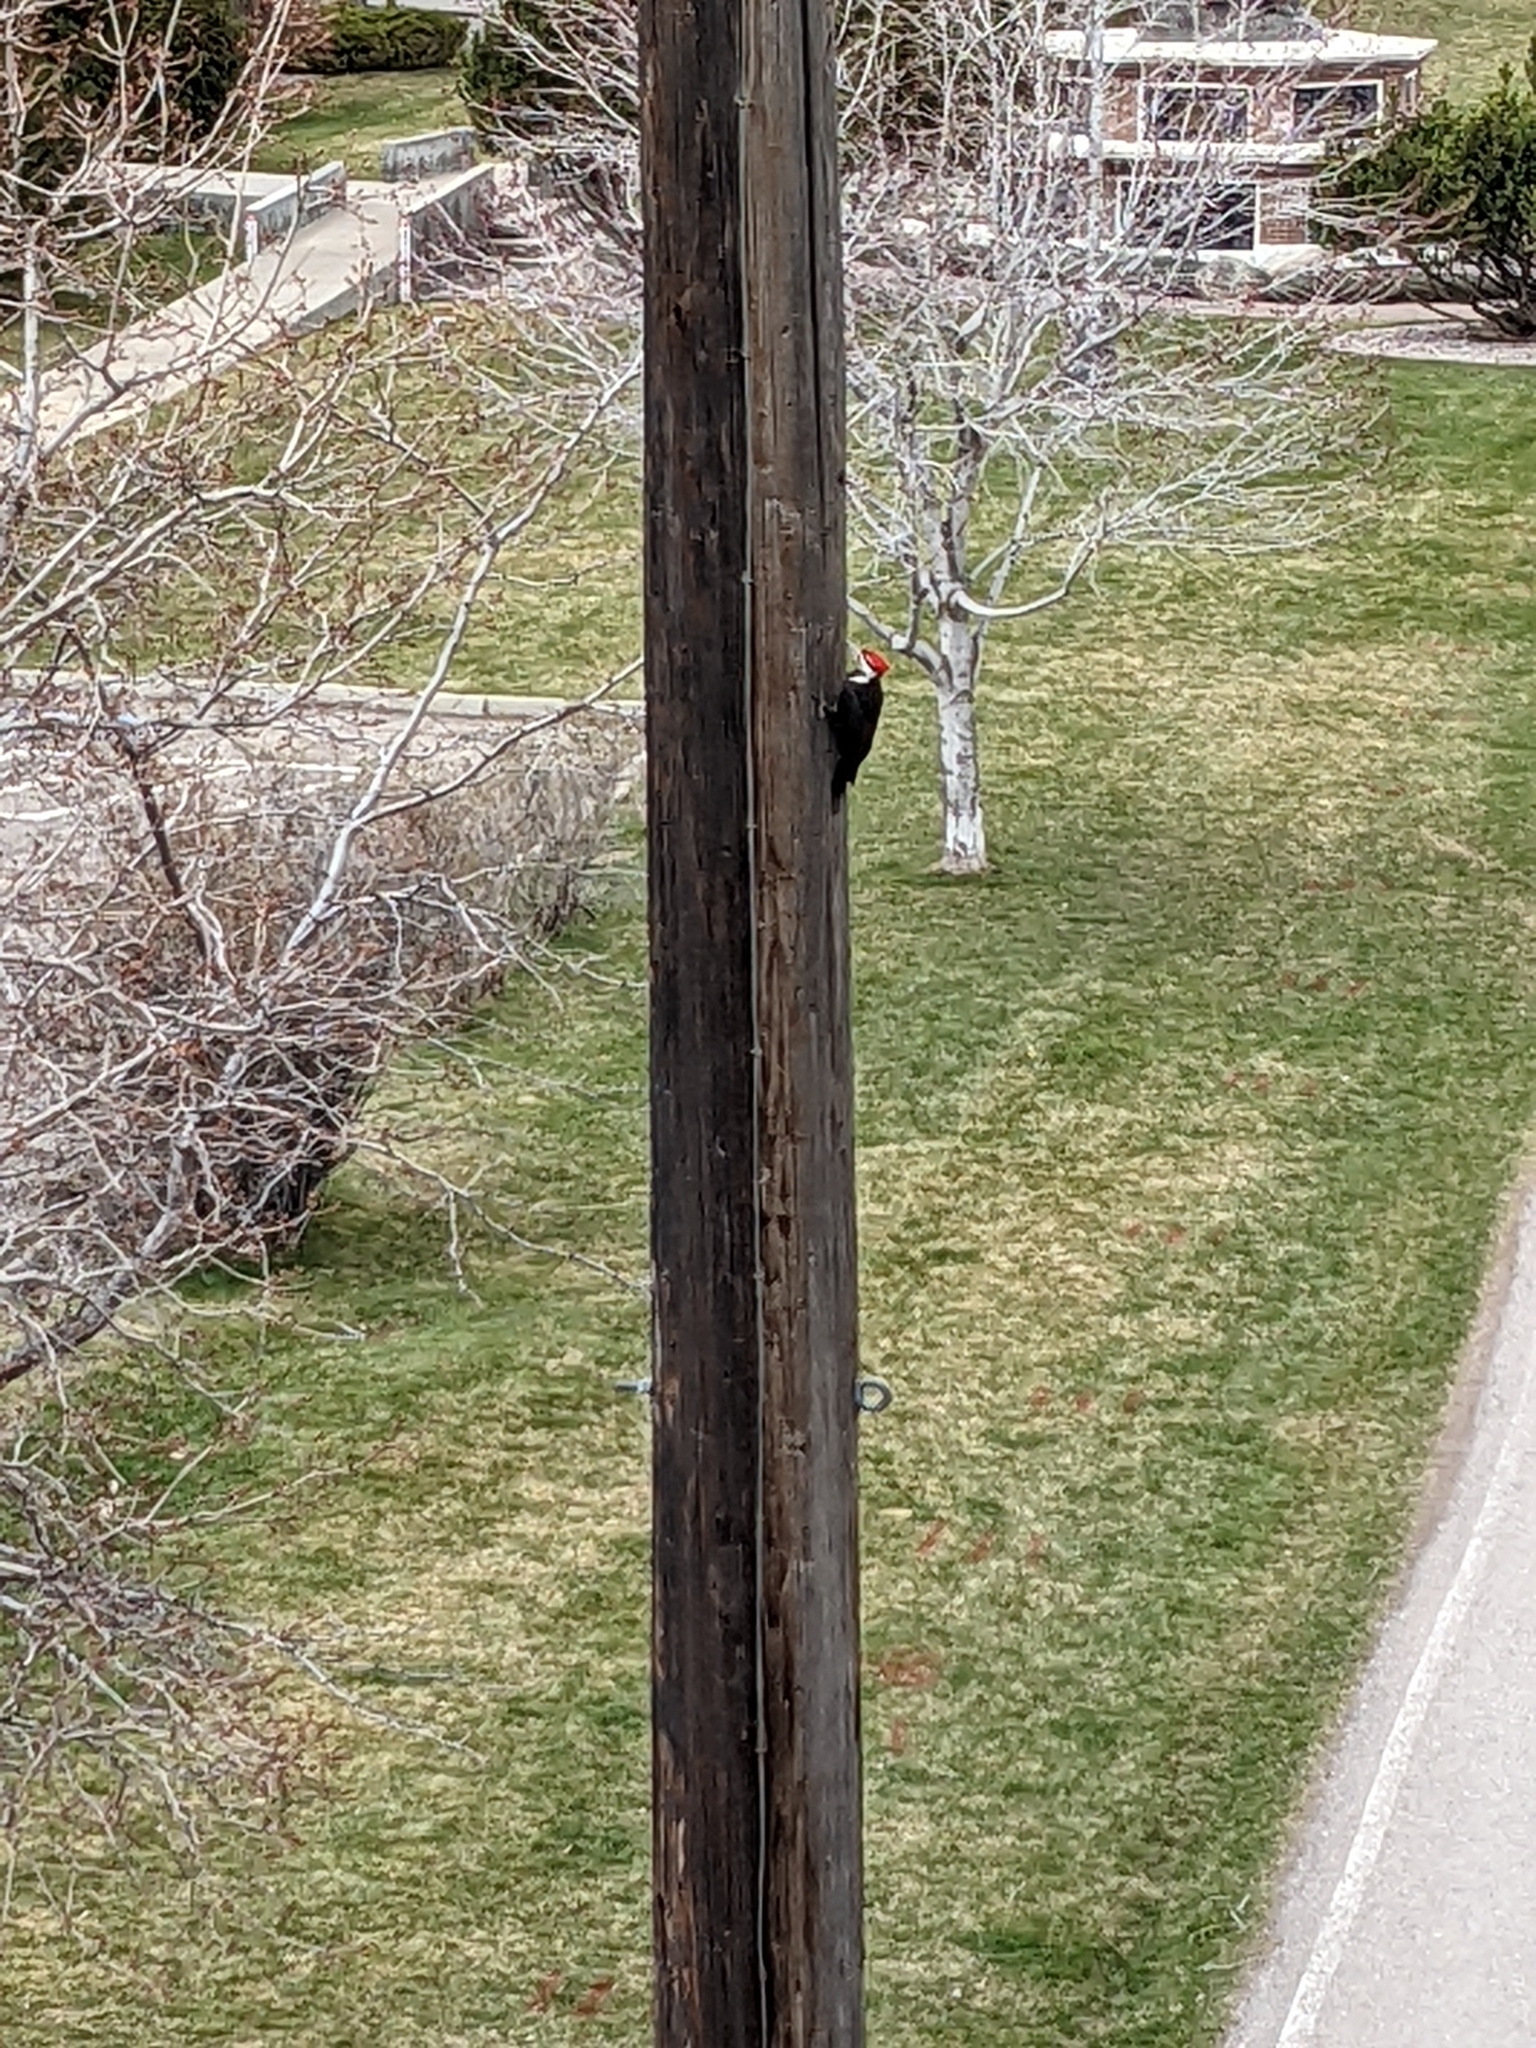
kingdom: Animalia
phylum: Chordata
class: Aves
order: Piciformes
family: Picidae
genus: Dryocopus
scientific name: Dryocopus pileatus
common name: Pileated woodpecker
